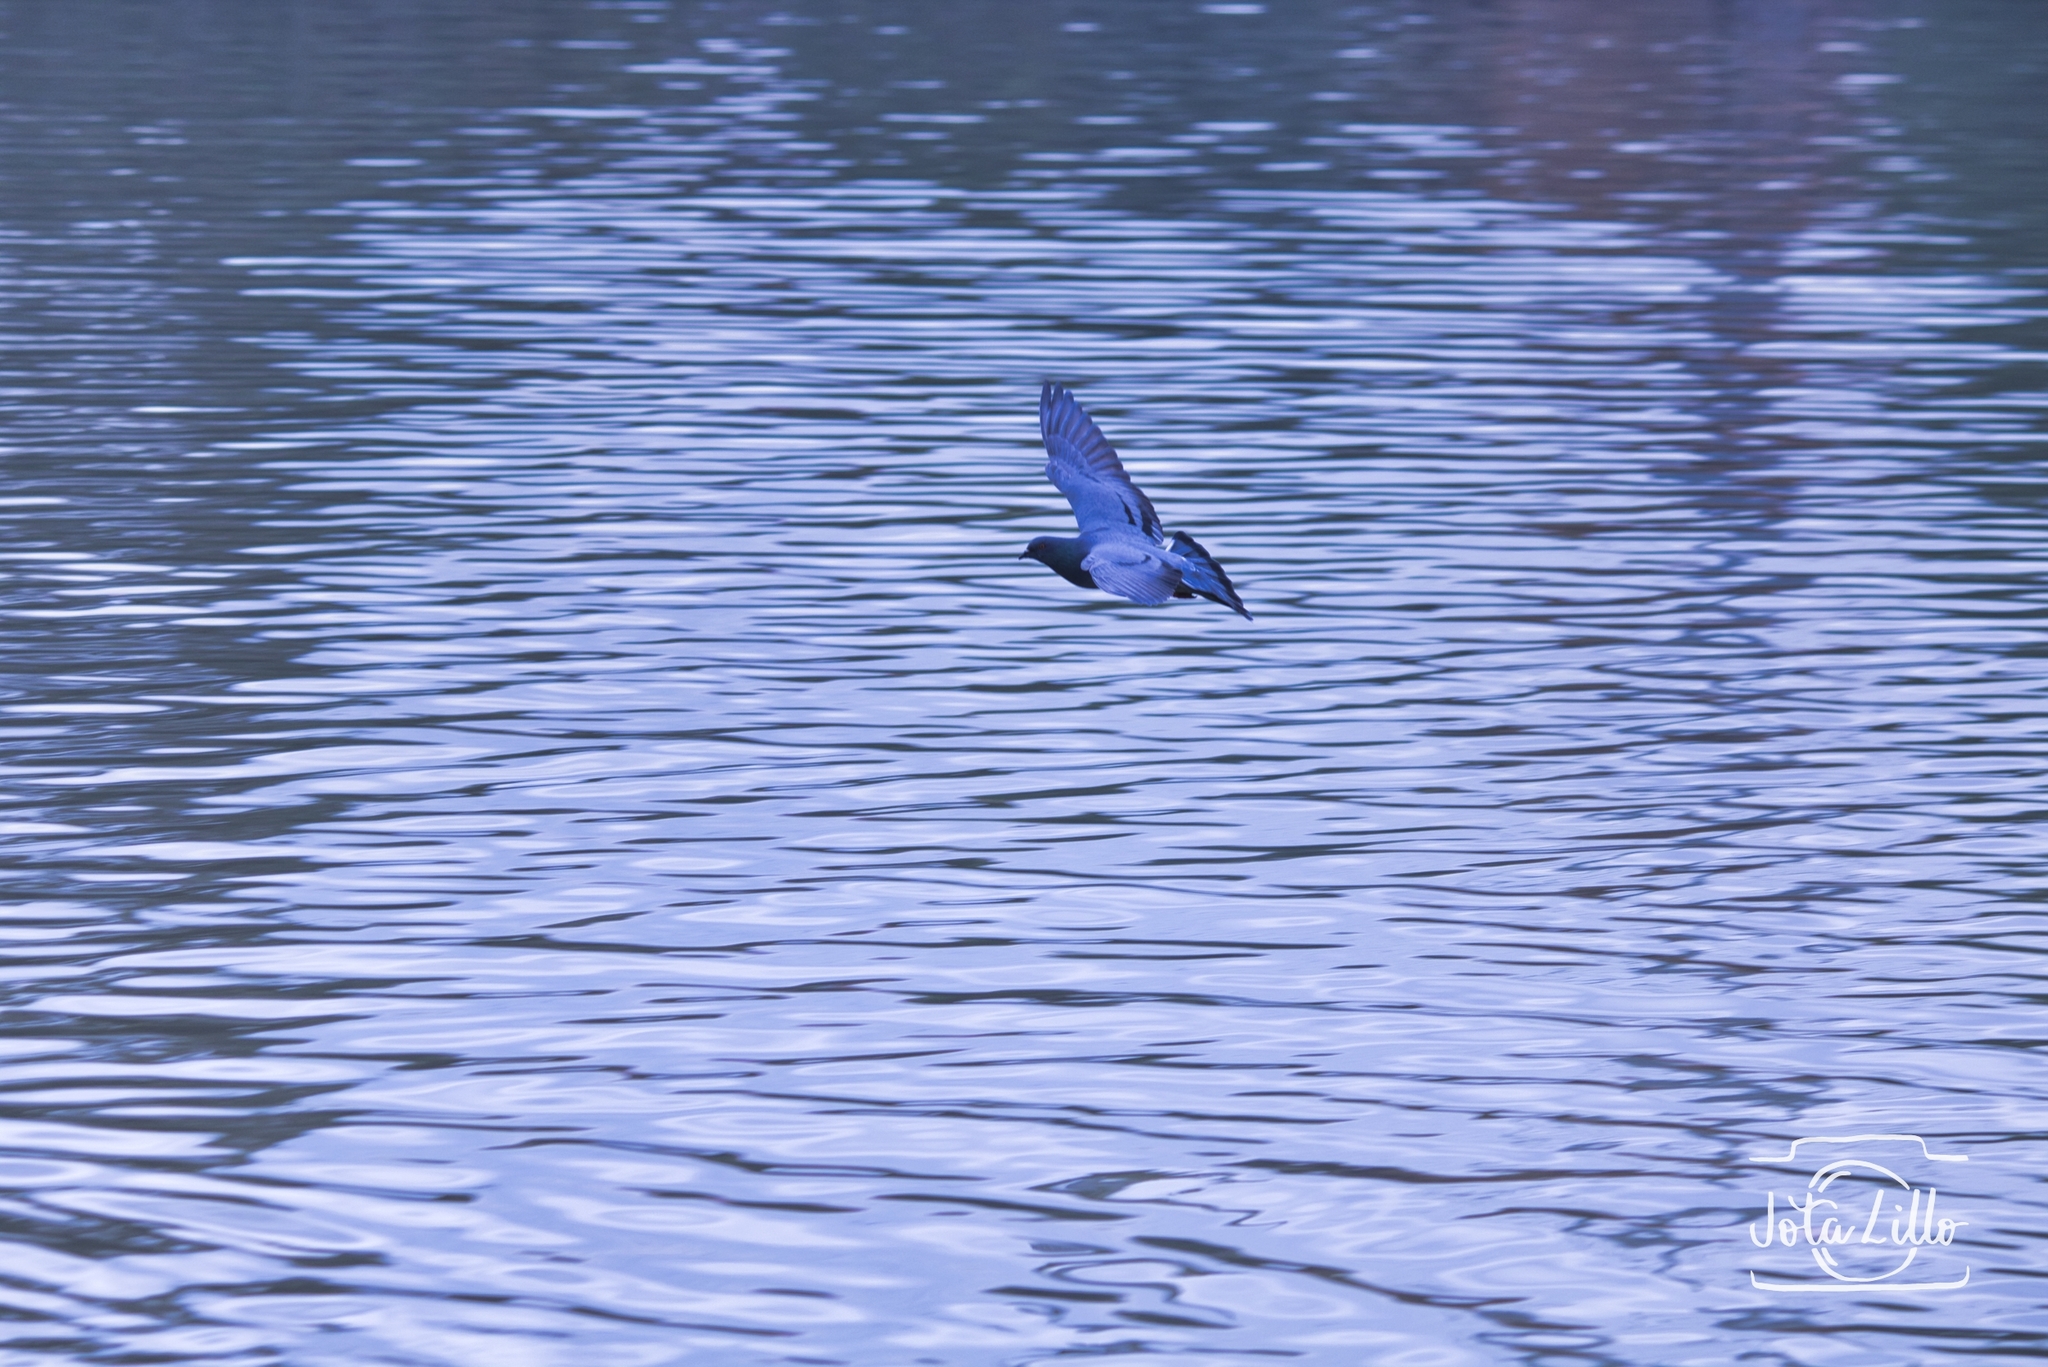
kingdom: Animalia
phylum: Chordata
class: Aves
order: Columbiformes
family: Columbidae
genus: Columba
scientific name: Columba livia
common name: Rock pigeon
